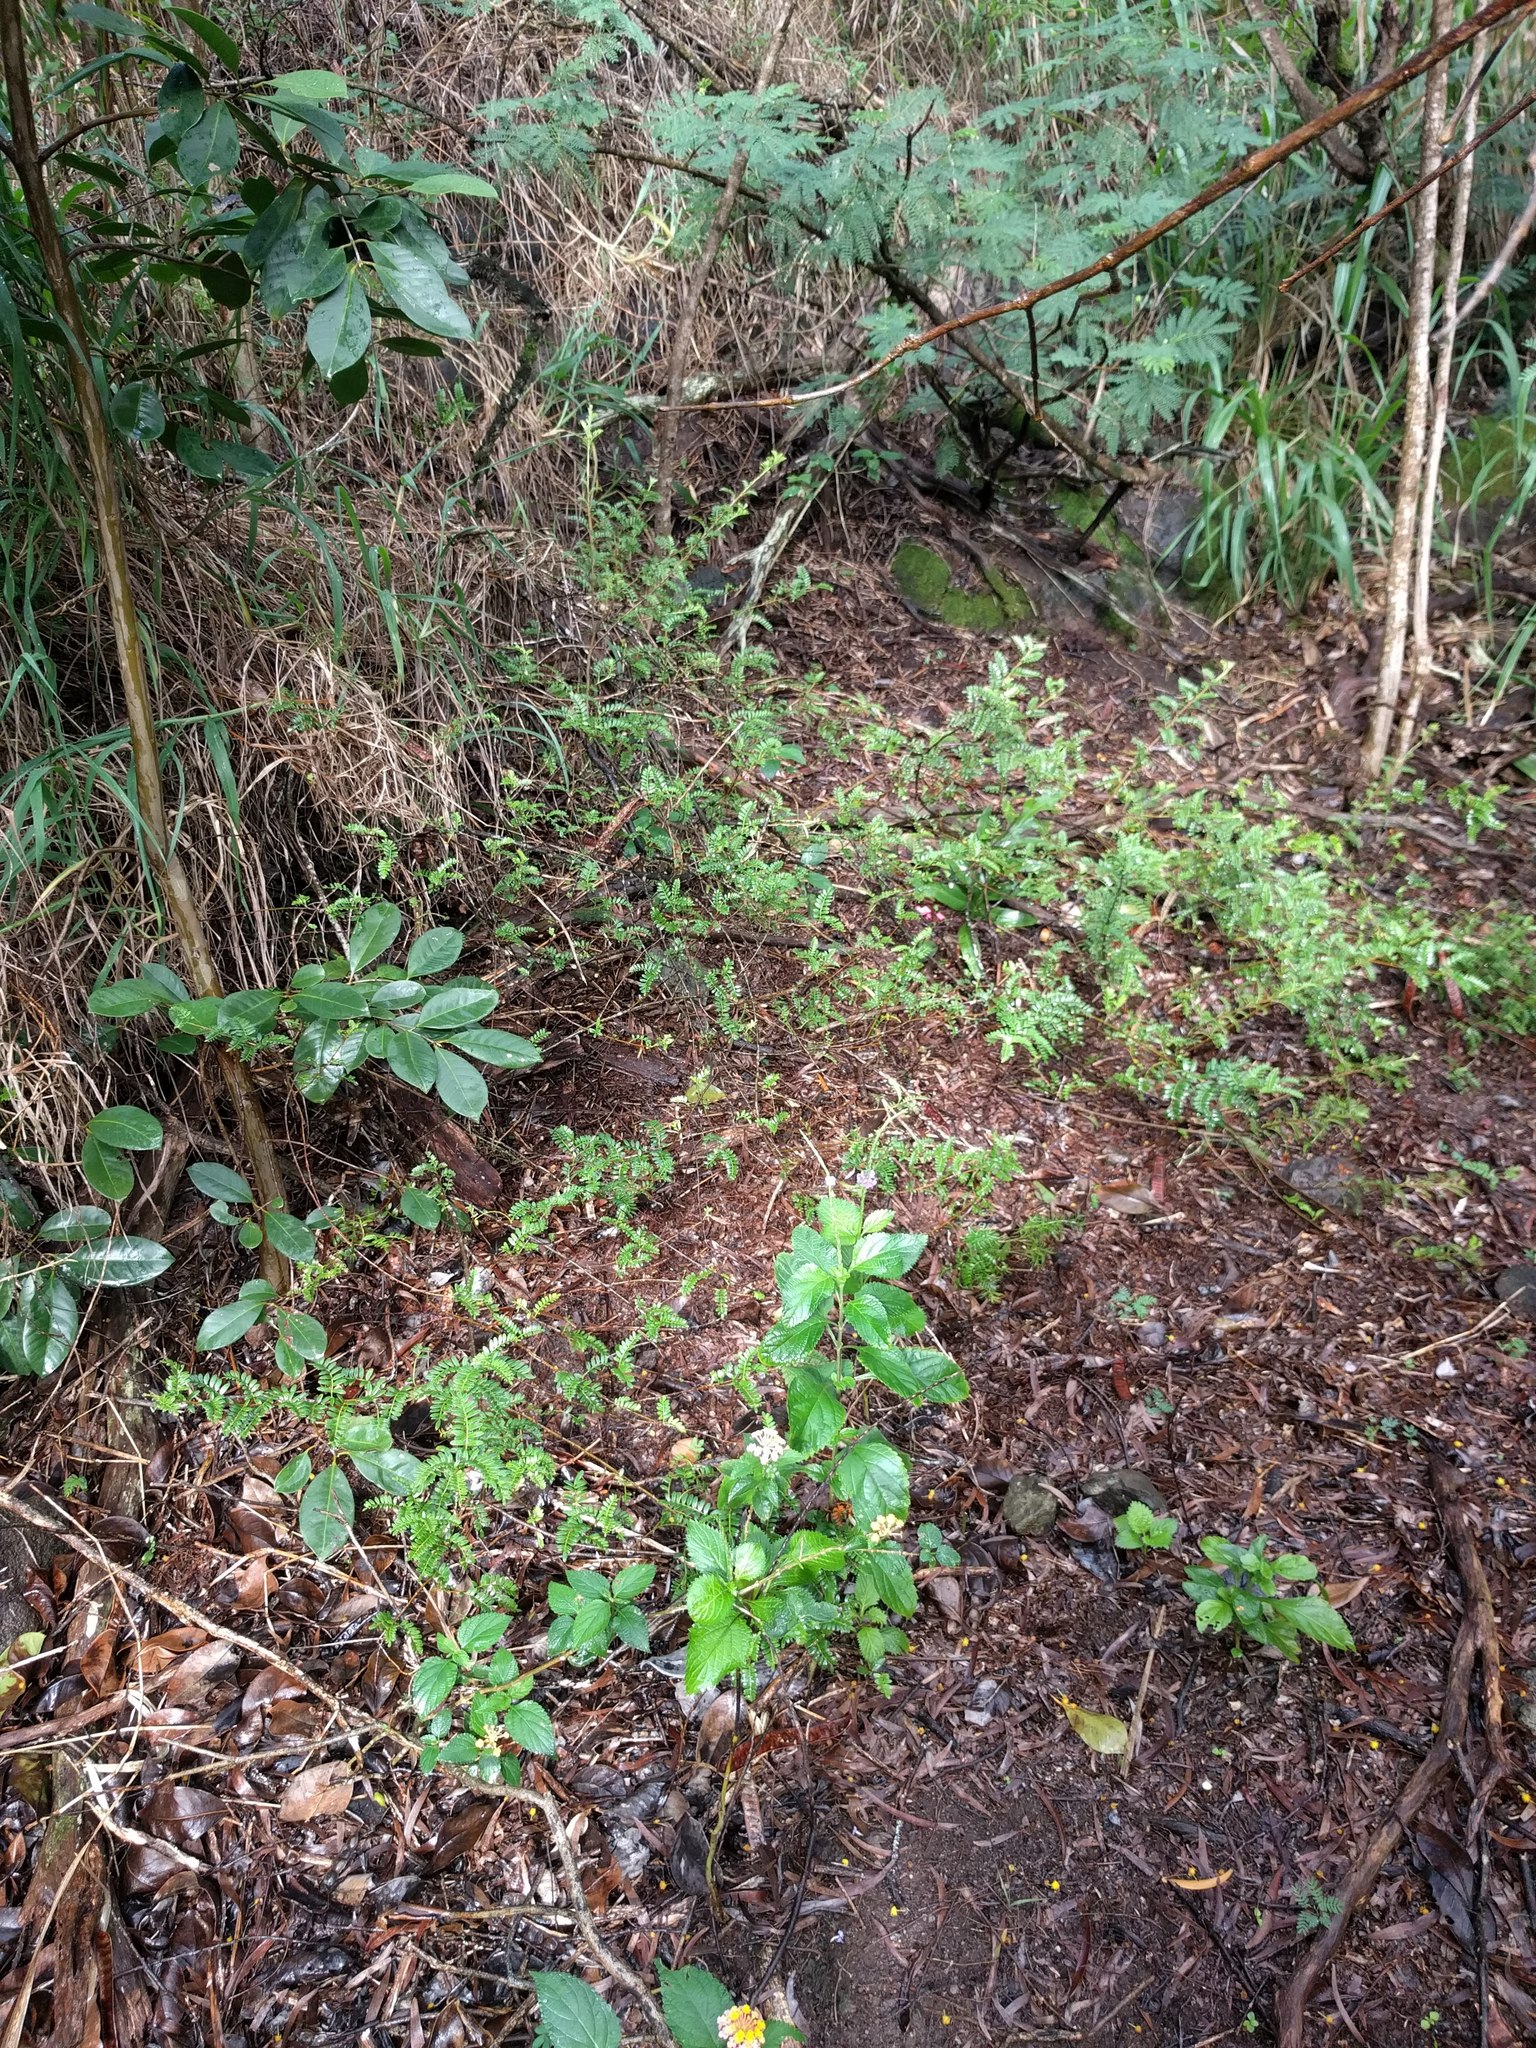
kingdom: Plantae
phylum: Tracheophyta
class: Magnoliopsida
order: Rosales
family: Rosaceae
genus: Osteomeles
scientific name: Osteomeles anthyllidifolia
